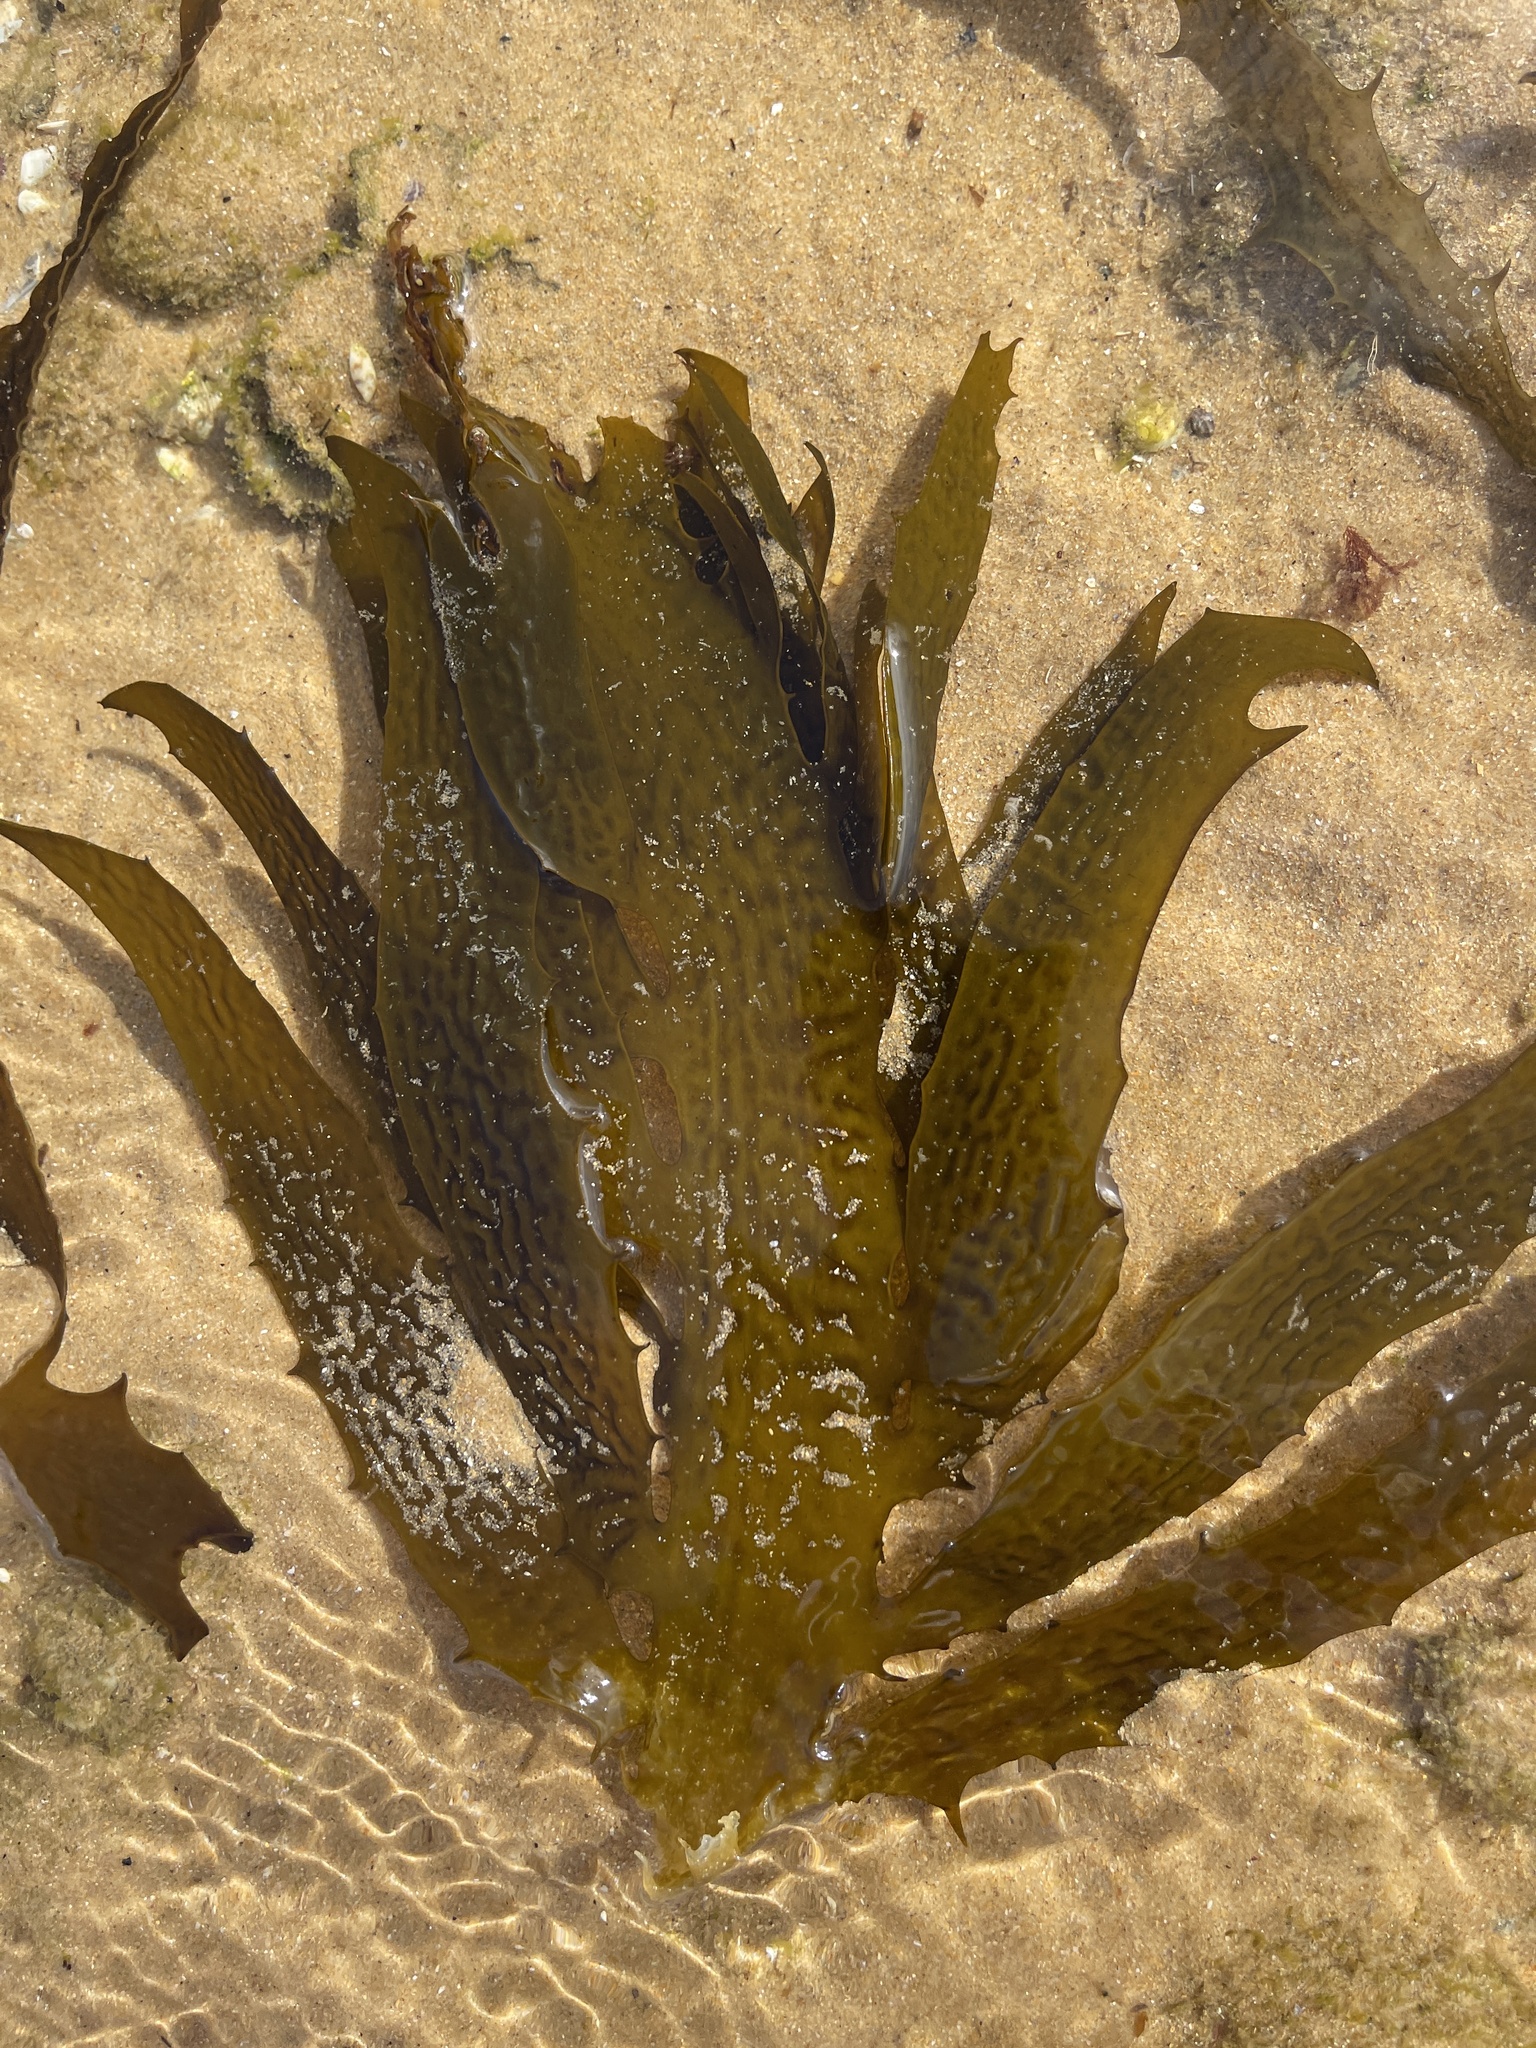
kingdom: Chromista
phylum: Ochrophyta
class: Phaeophyceae
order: Laminariales
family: Lessoniaceae
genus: Ecklonia
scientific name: Ecklonia radiata
